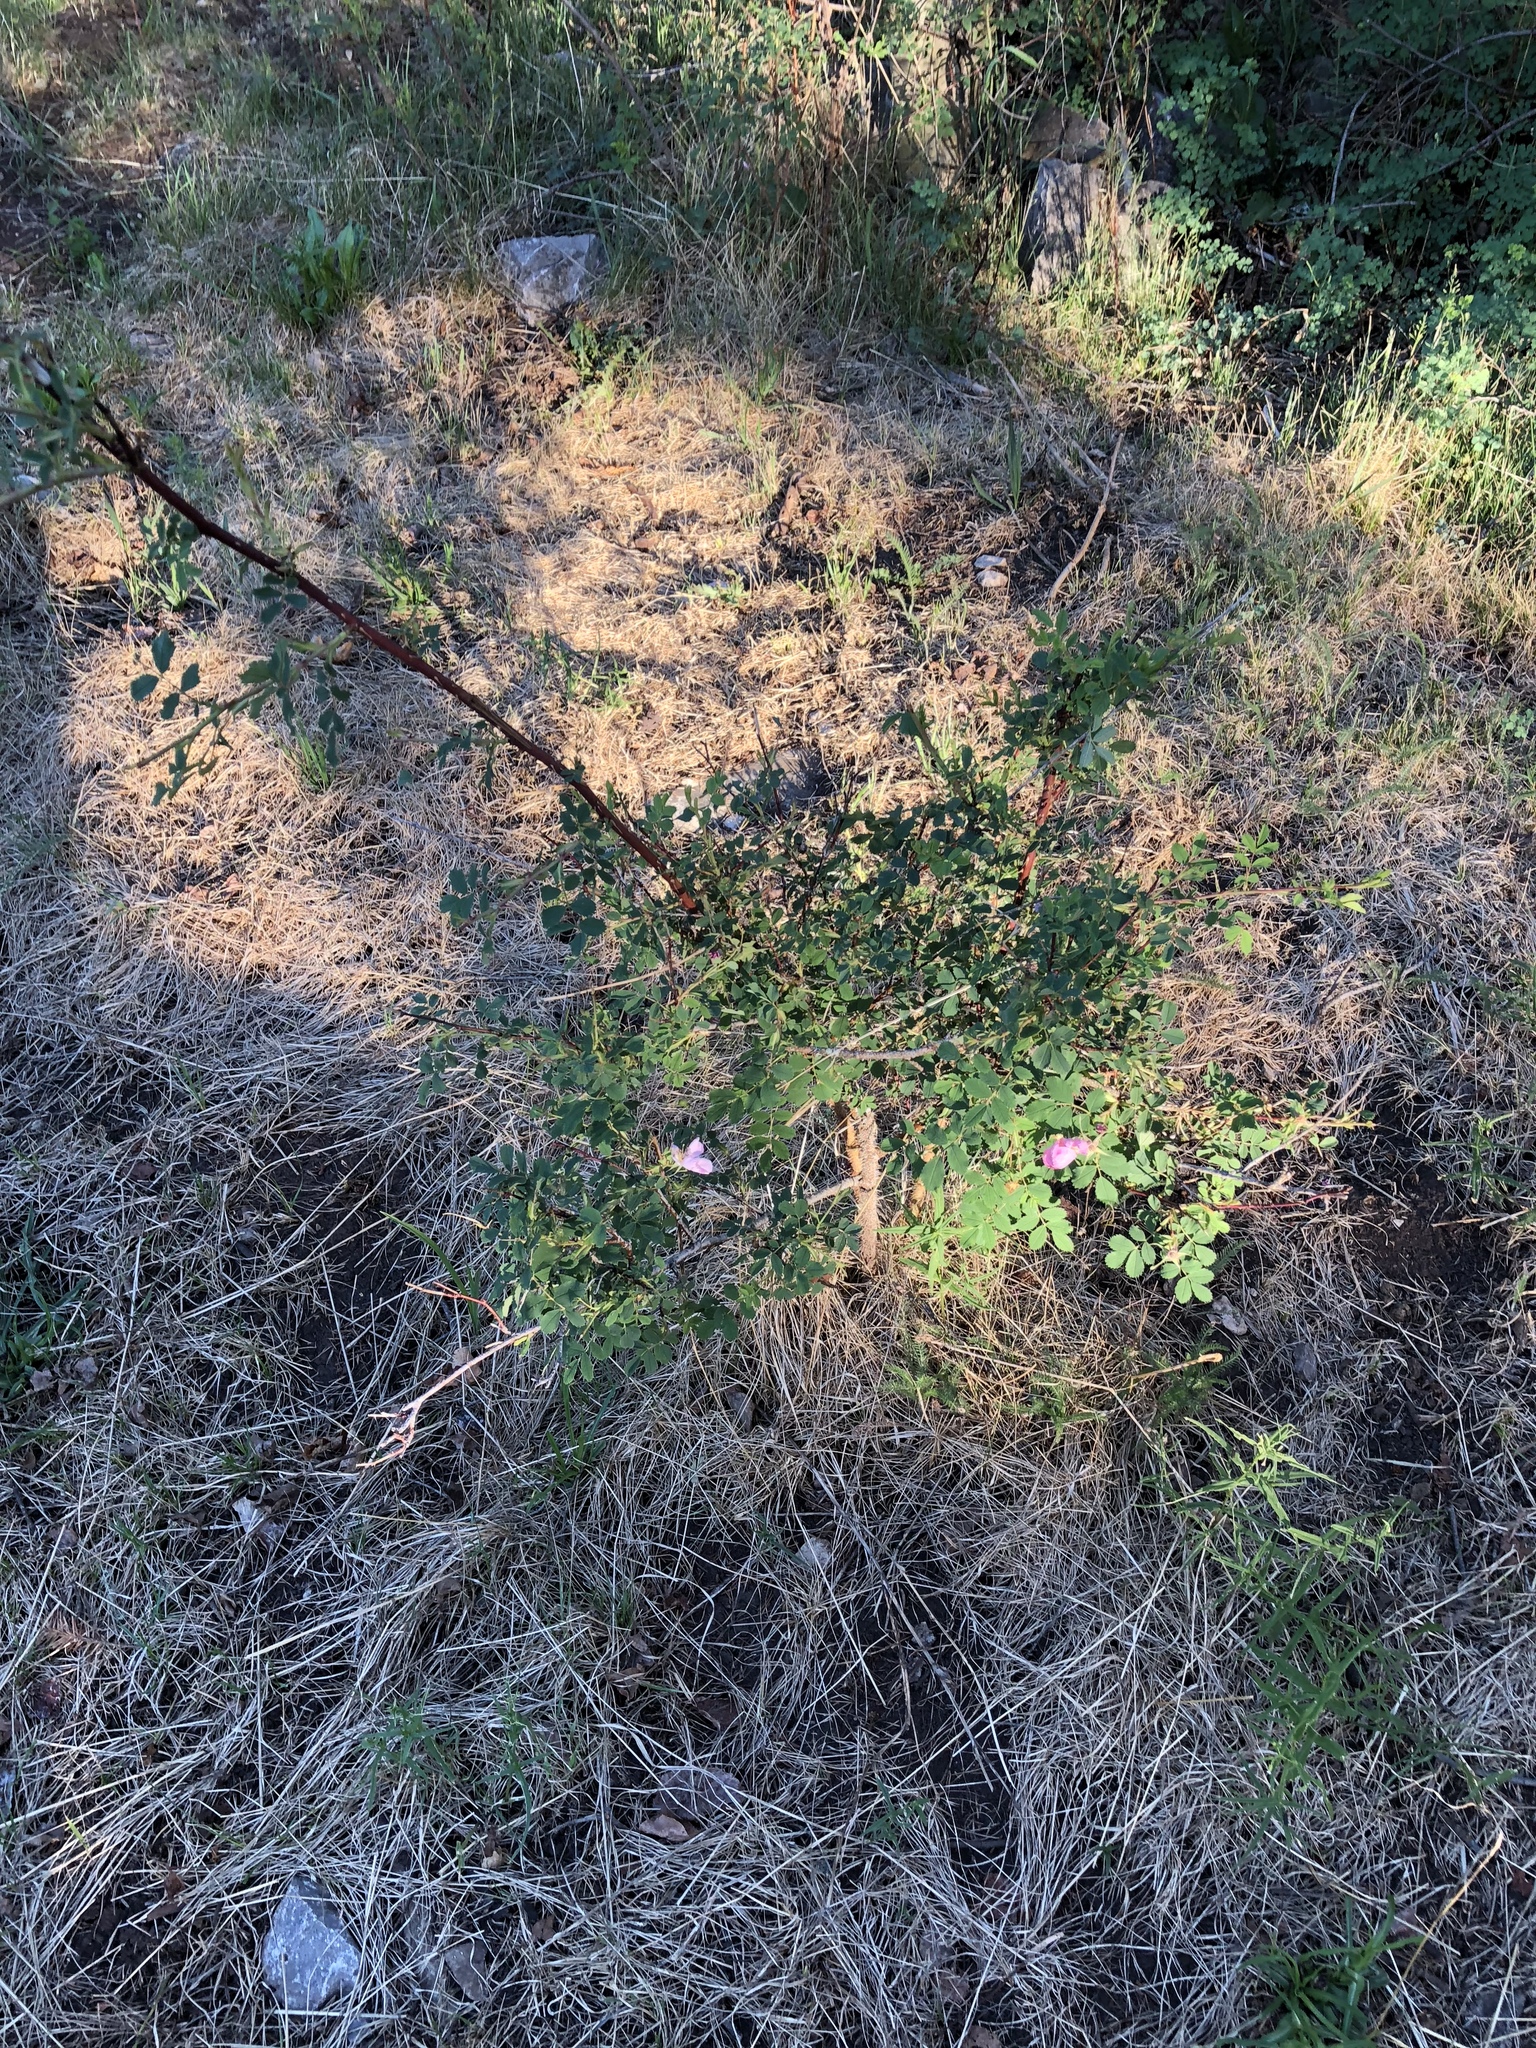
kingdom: Plantae
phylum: Tracheophyta
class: Magnoliopsida
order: Rosales
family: Rosaceae
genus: Rosa
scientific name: Rosa woodsii
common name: Woods's rose
